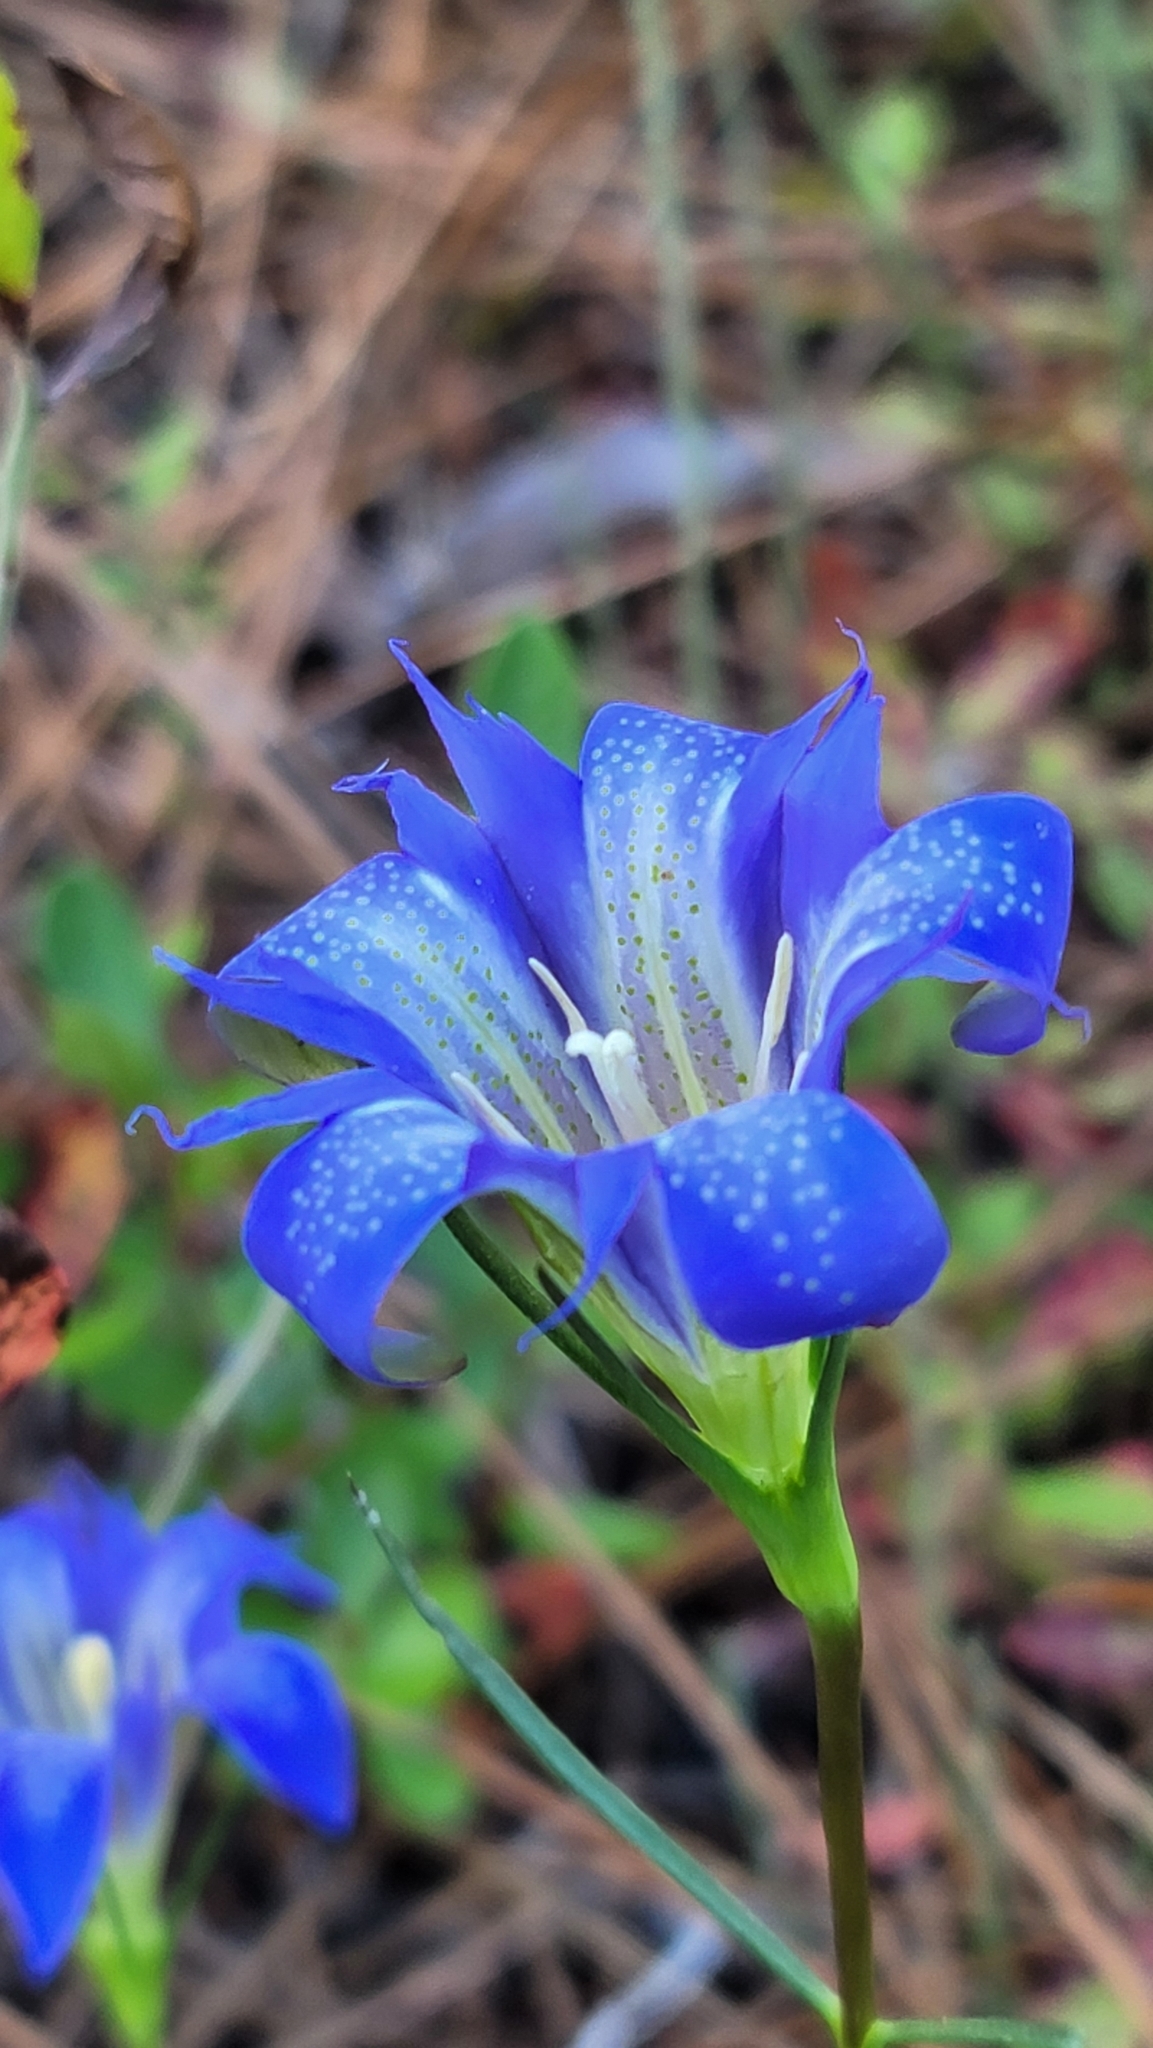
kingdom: Plantae
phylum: Tracheophyta
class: Magnoliopsida
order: Gentianales
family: Gentianaceae
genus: Gentiana
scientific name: Gentiana autumnalis
